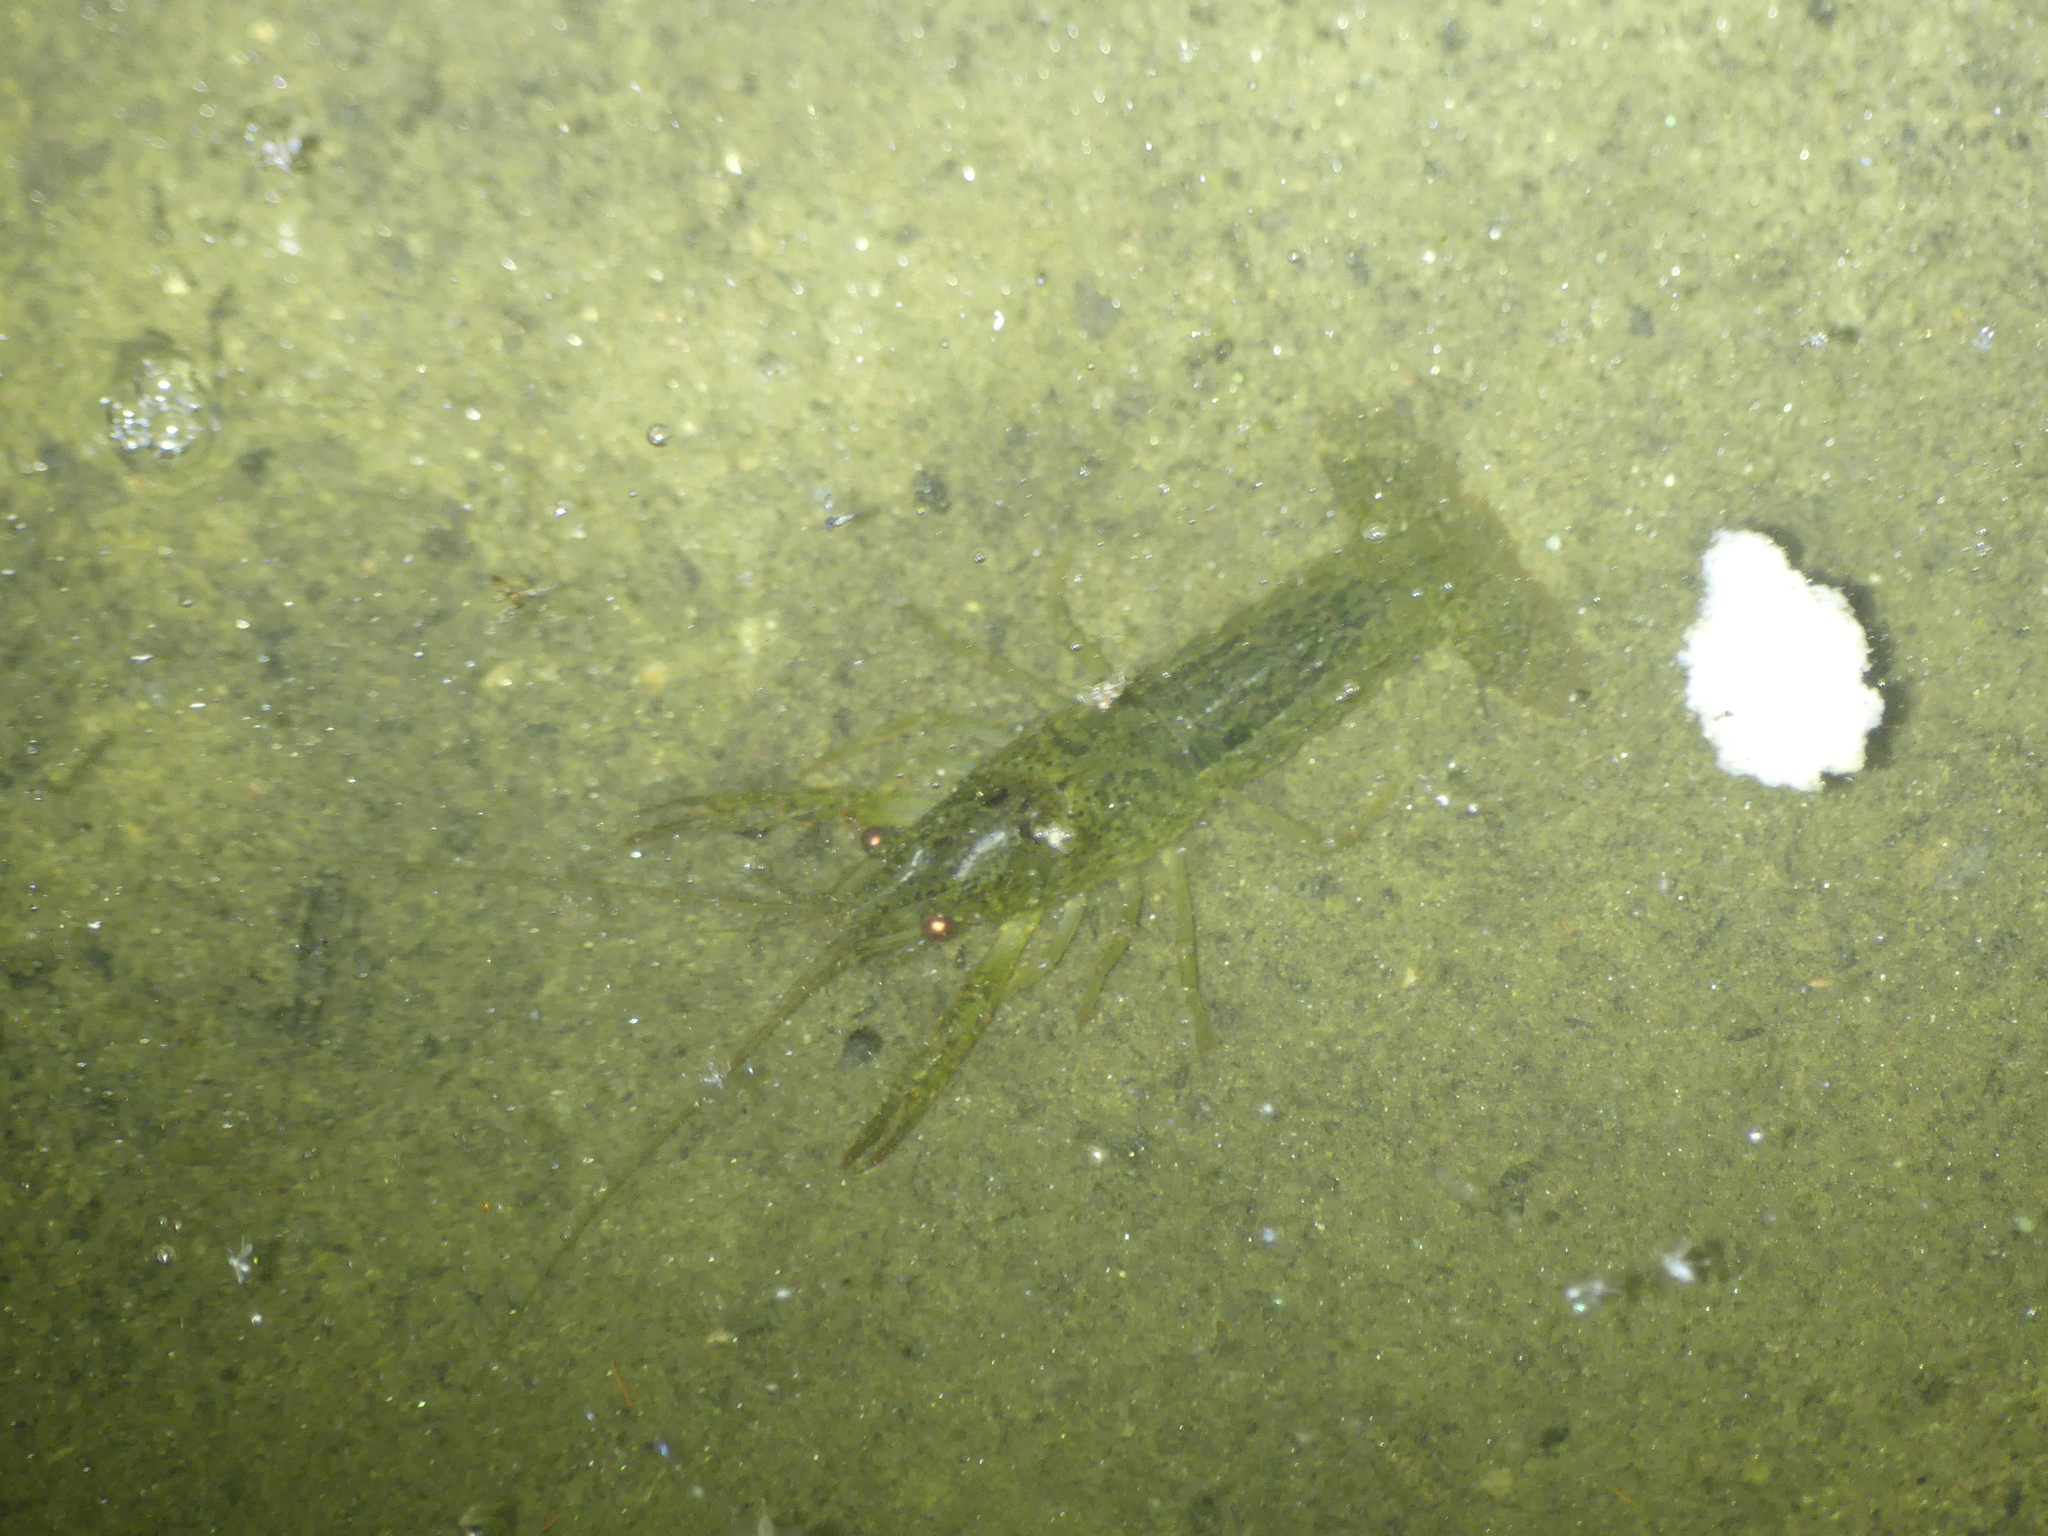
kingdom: Animalia
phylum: Arthropoda
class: Malacostraca
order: Decapoda
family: Cambaridae
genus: Procambarus
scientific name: Procambarus clarkii
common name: Red swamp crayfish
